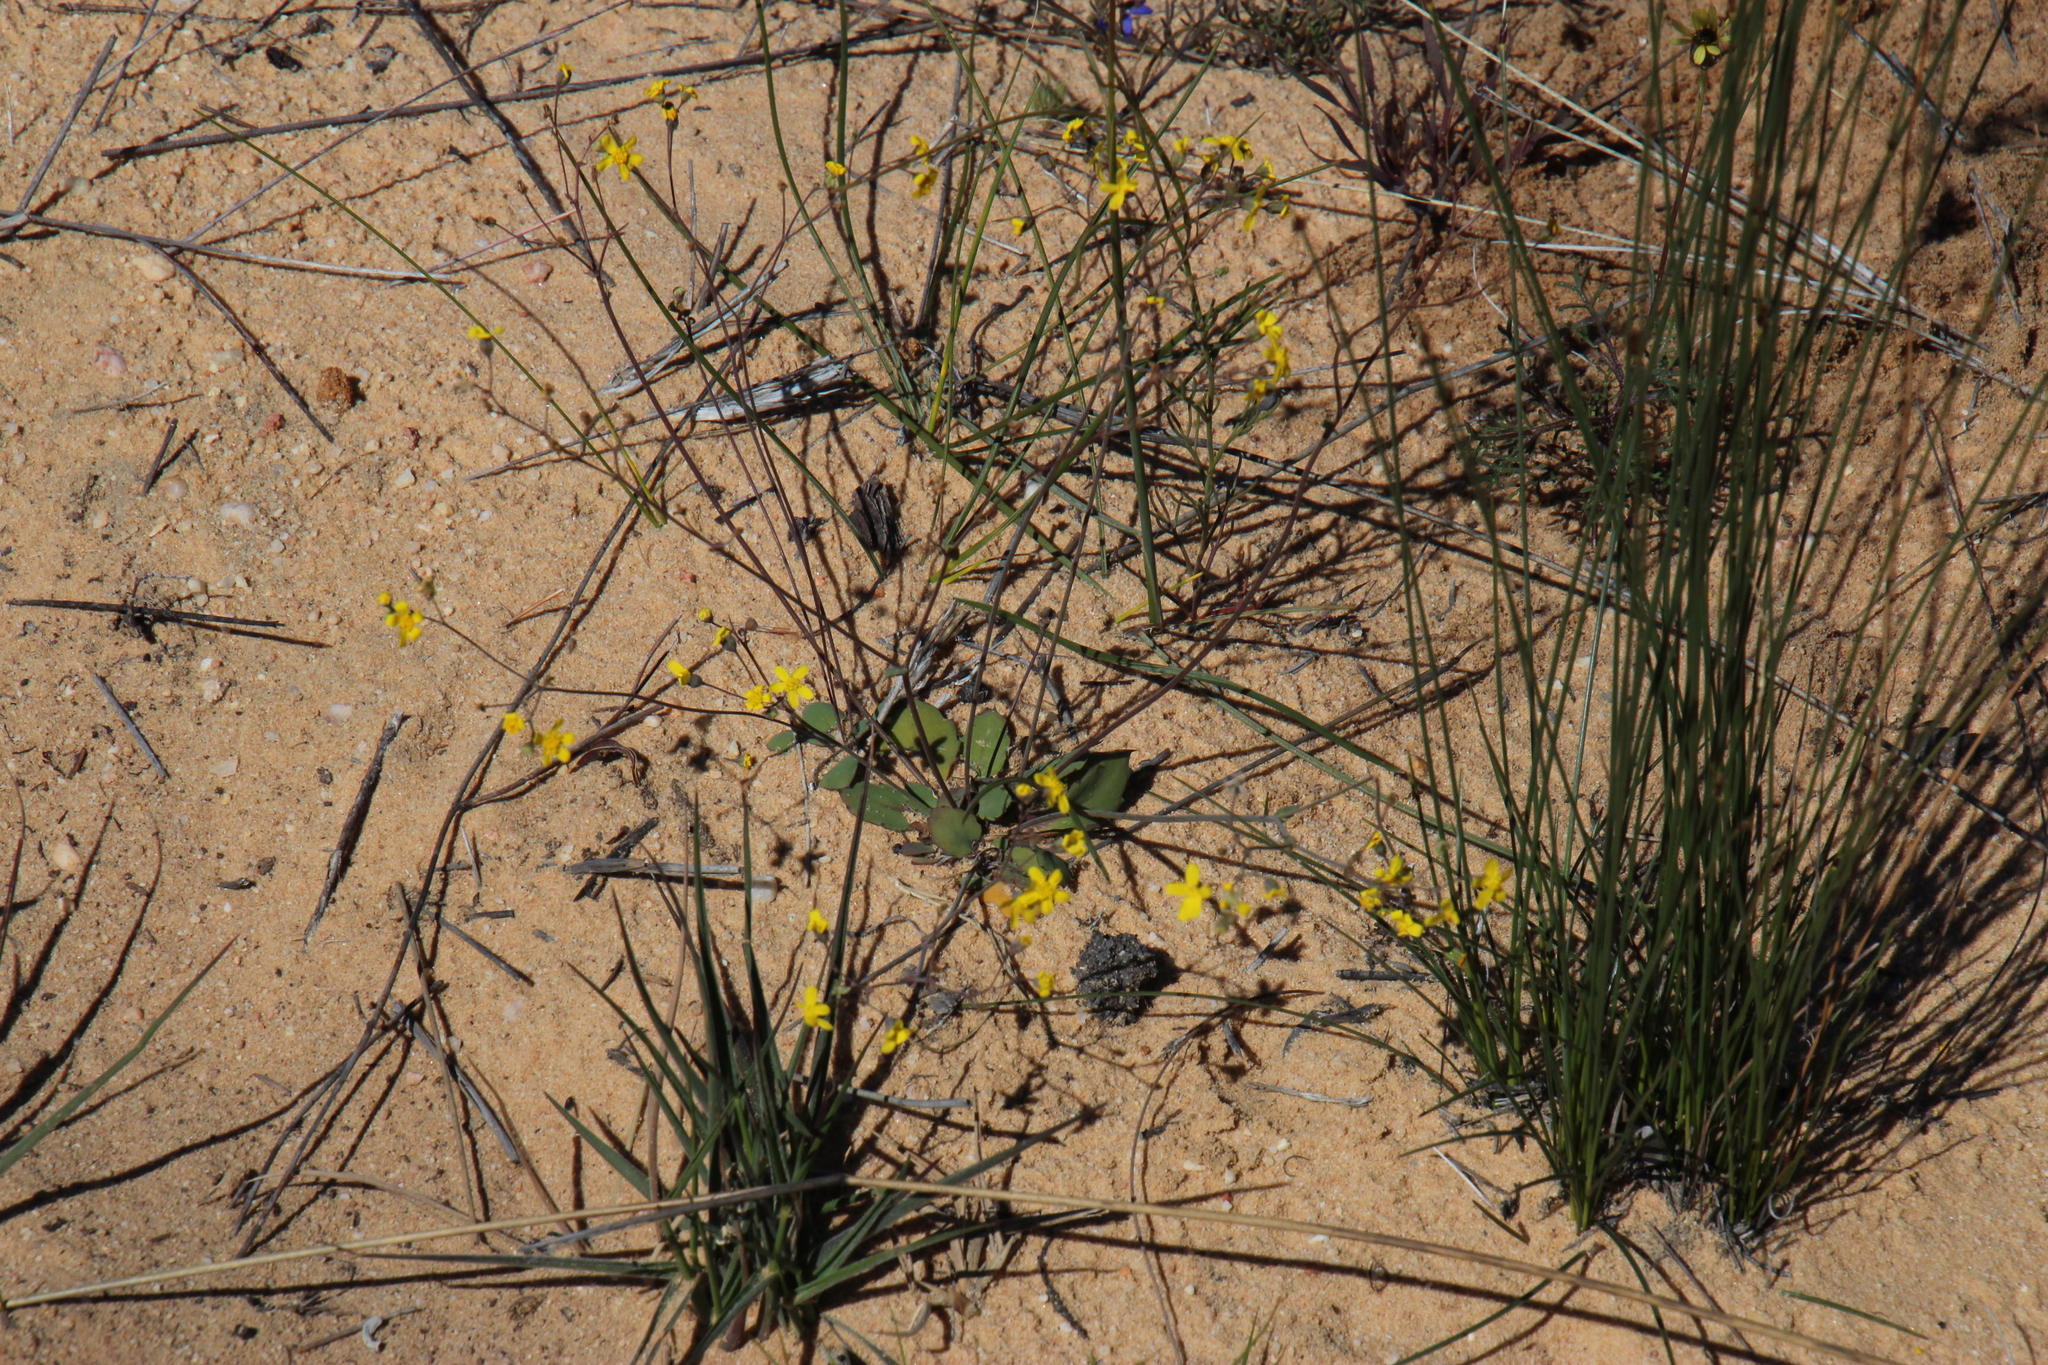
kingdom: Plantae
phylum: Tracheophyta
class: Magnoliopsida
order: Asterales
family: Asteraceae
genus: Gymnodiscus
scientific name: Gymnodiscus capillaris
